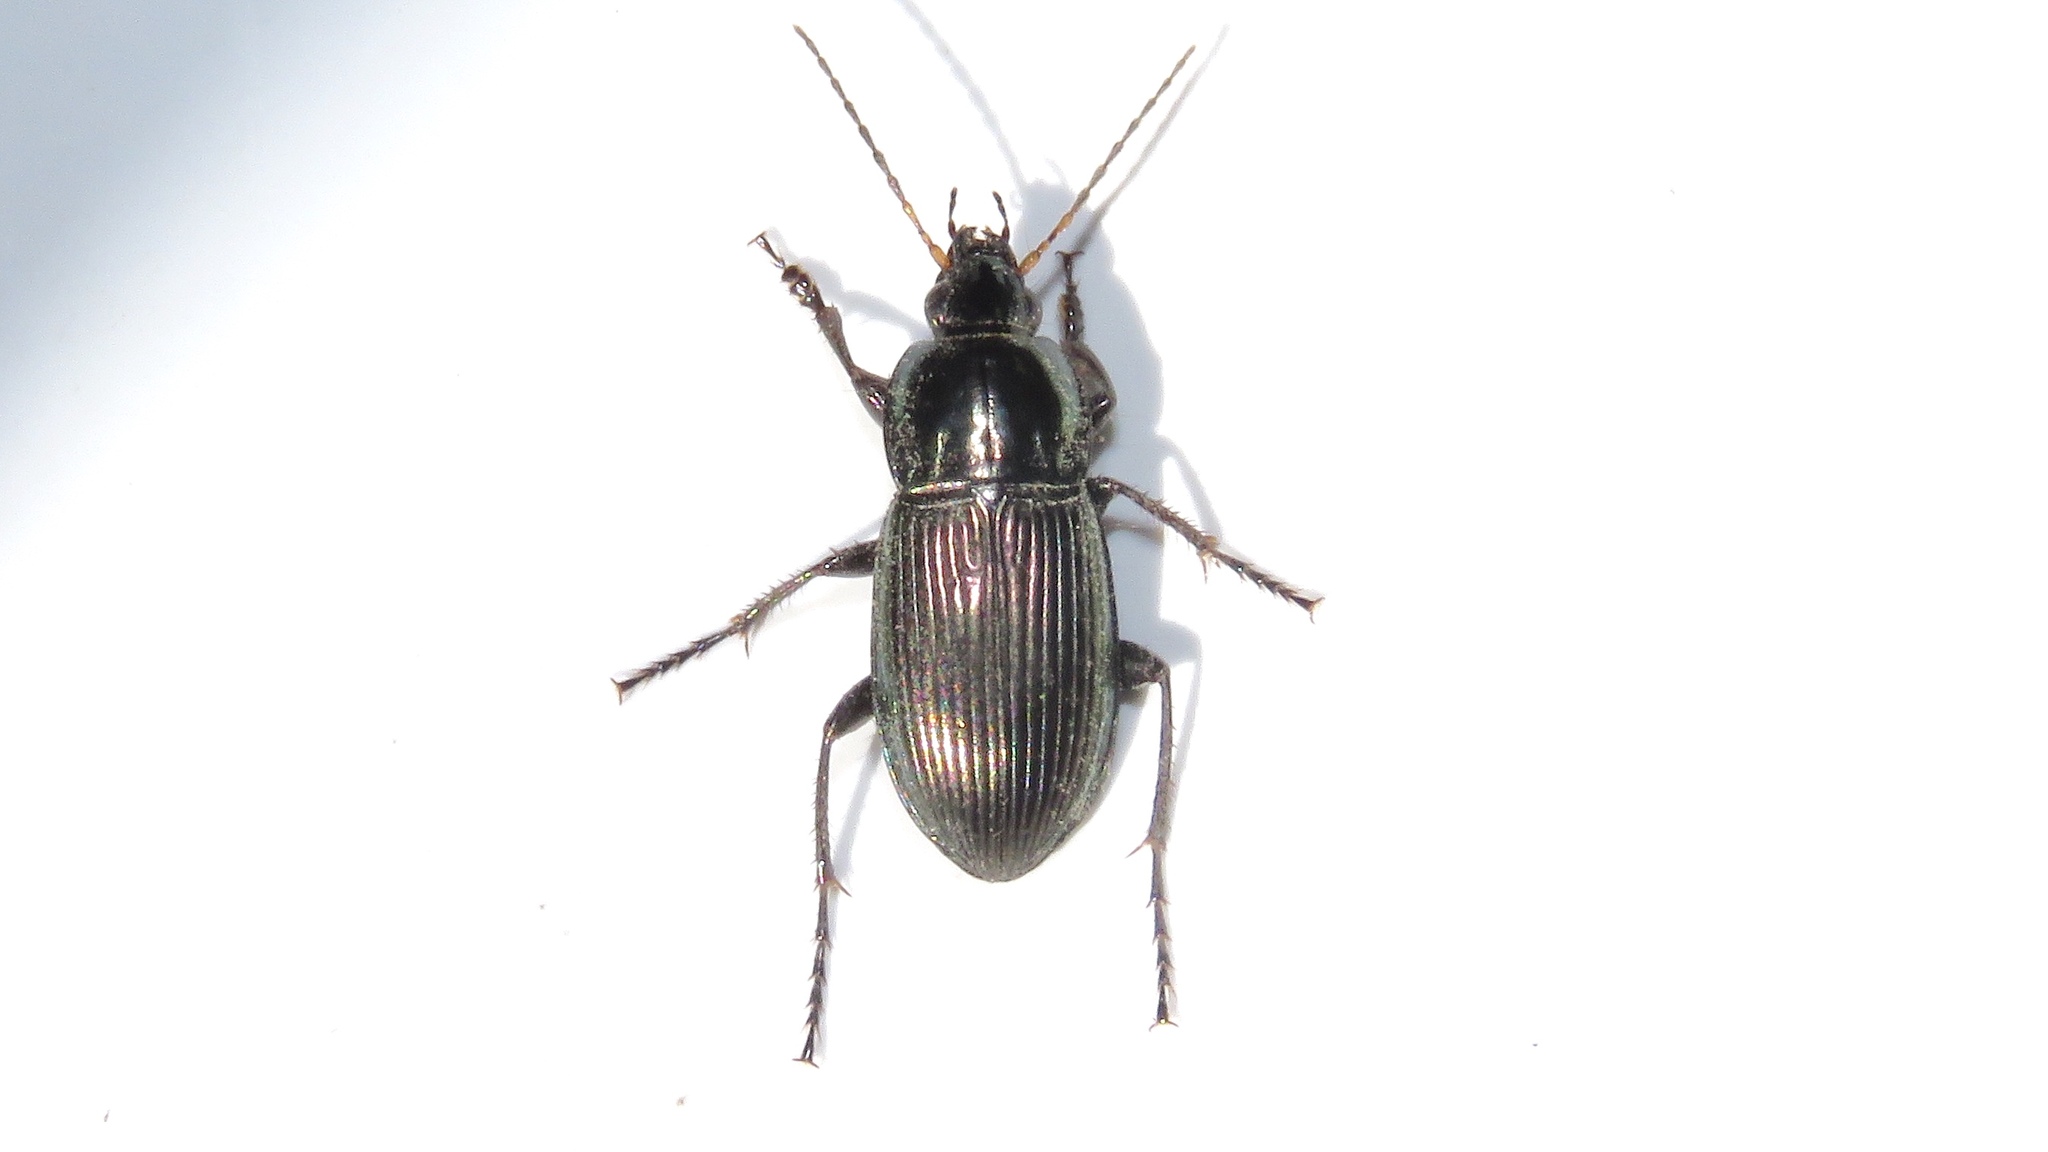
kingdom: Animalia
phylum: Arthropoda
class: Insecta
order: Coleoptera
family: Carabidae
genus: Poecilus
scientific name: Poecilus lucublandus
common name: Woodland ground beetle
